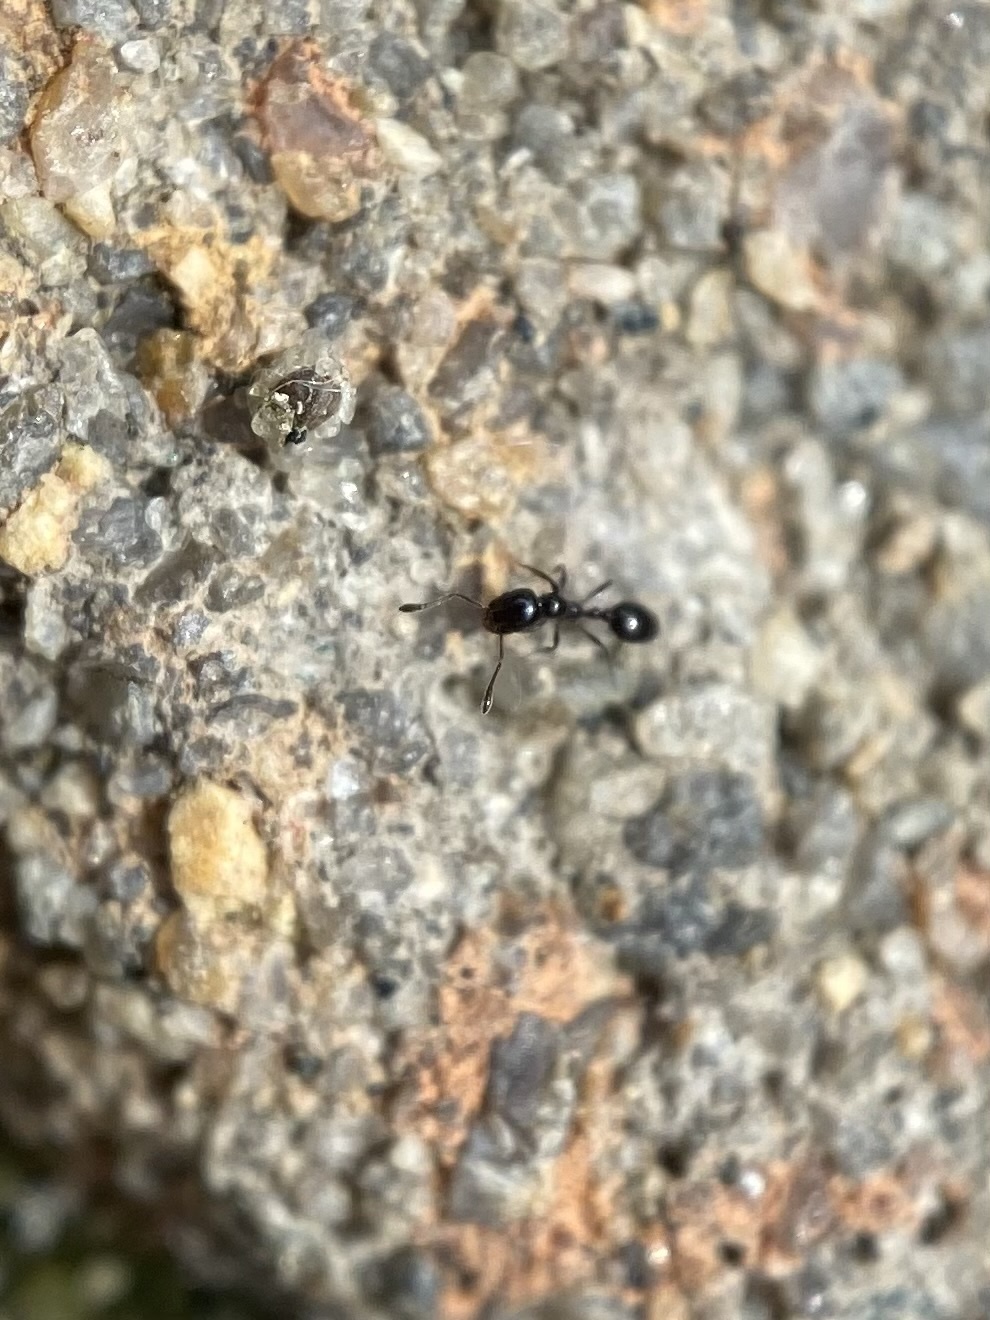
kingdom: Animalia
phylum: Arthropoda
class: Insecta
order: Hymenoptera
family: Formicidae
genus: Monomorium
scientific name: Monomorium minimum
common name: Little black ant
